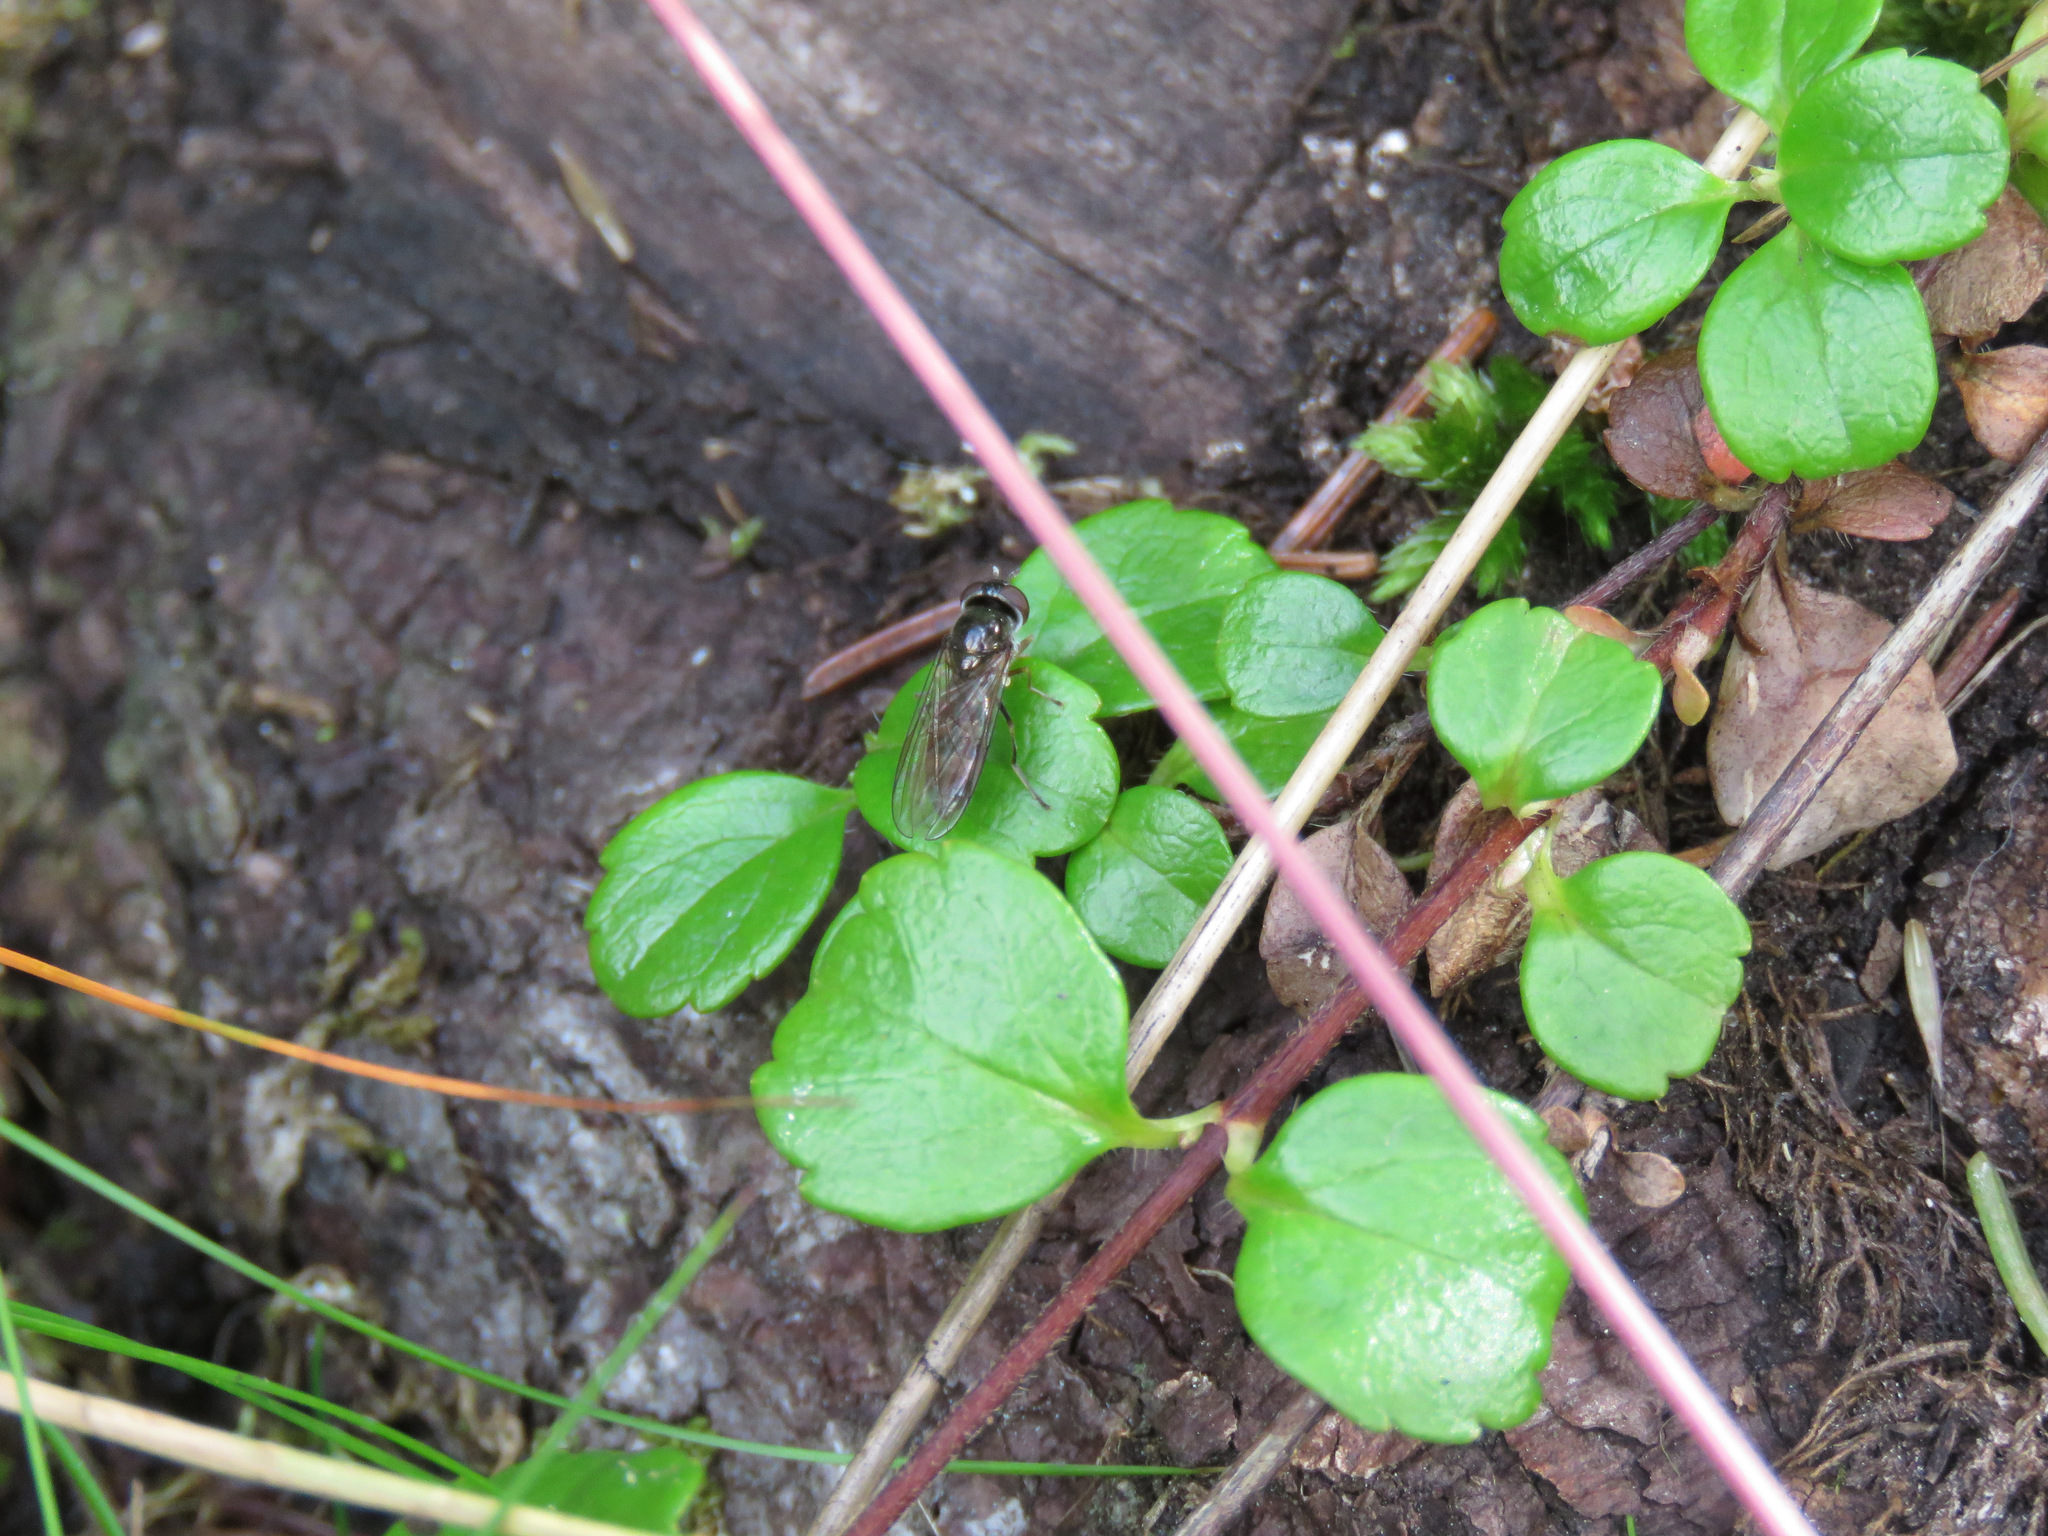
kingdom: Plantae
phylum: Tracheophyta
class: Magnoliopsida
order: Dipsacales
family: Caprifoliaceae
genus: Linnaea
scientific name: Linnaea borealis
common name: Twinflower
